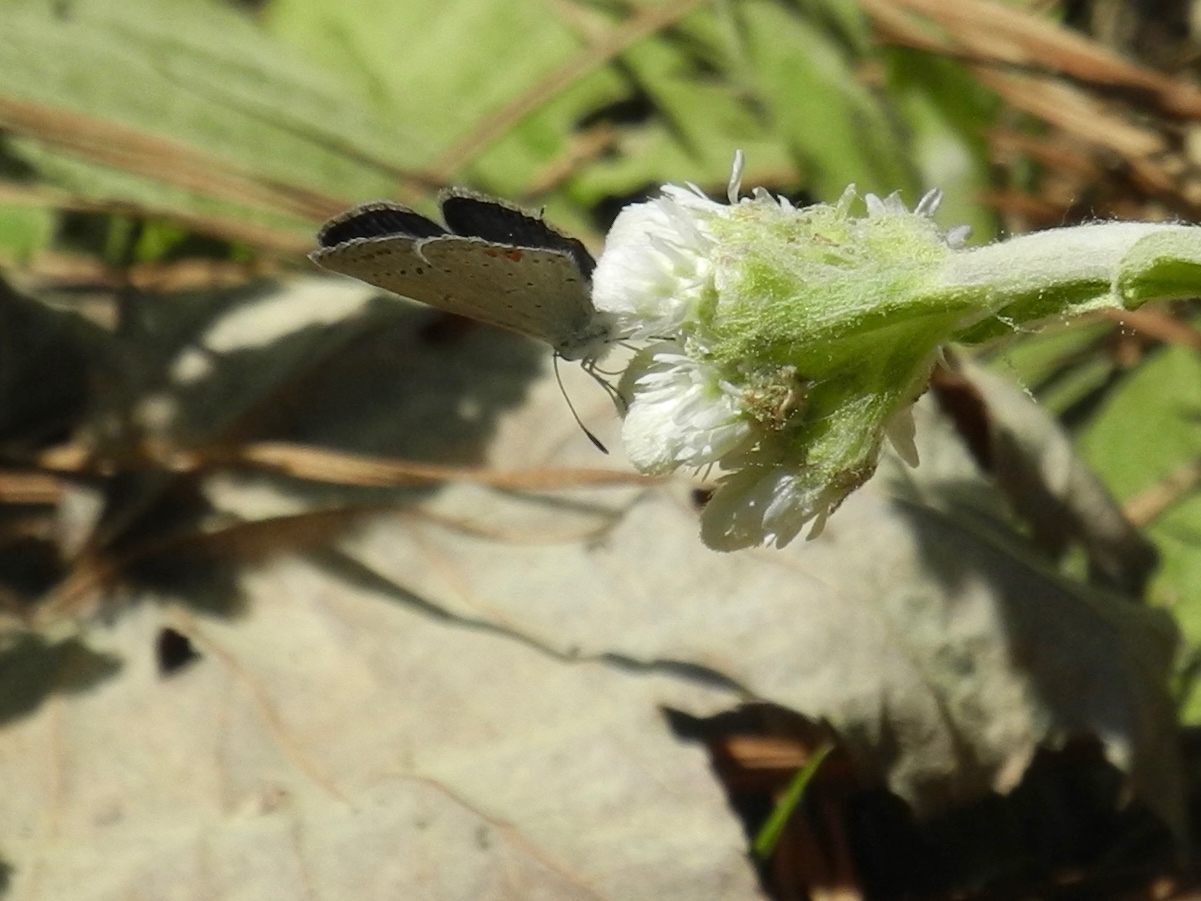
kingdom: Animalia
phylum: Arthropoda
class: Insecta
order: Lepidoptera
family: Lycaenidae
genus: Elkalyce
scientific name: Elkalyce comyntas
